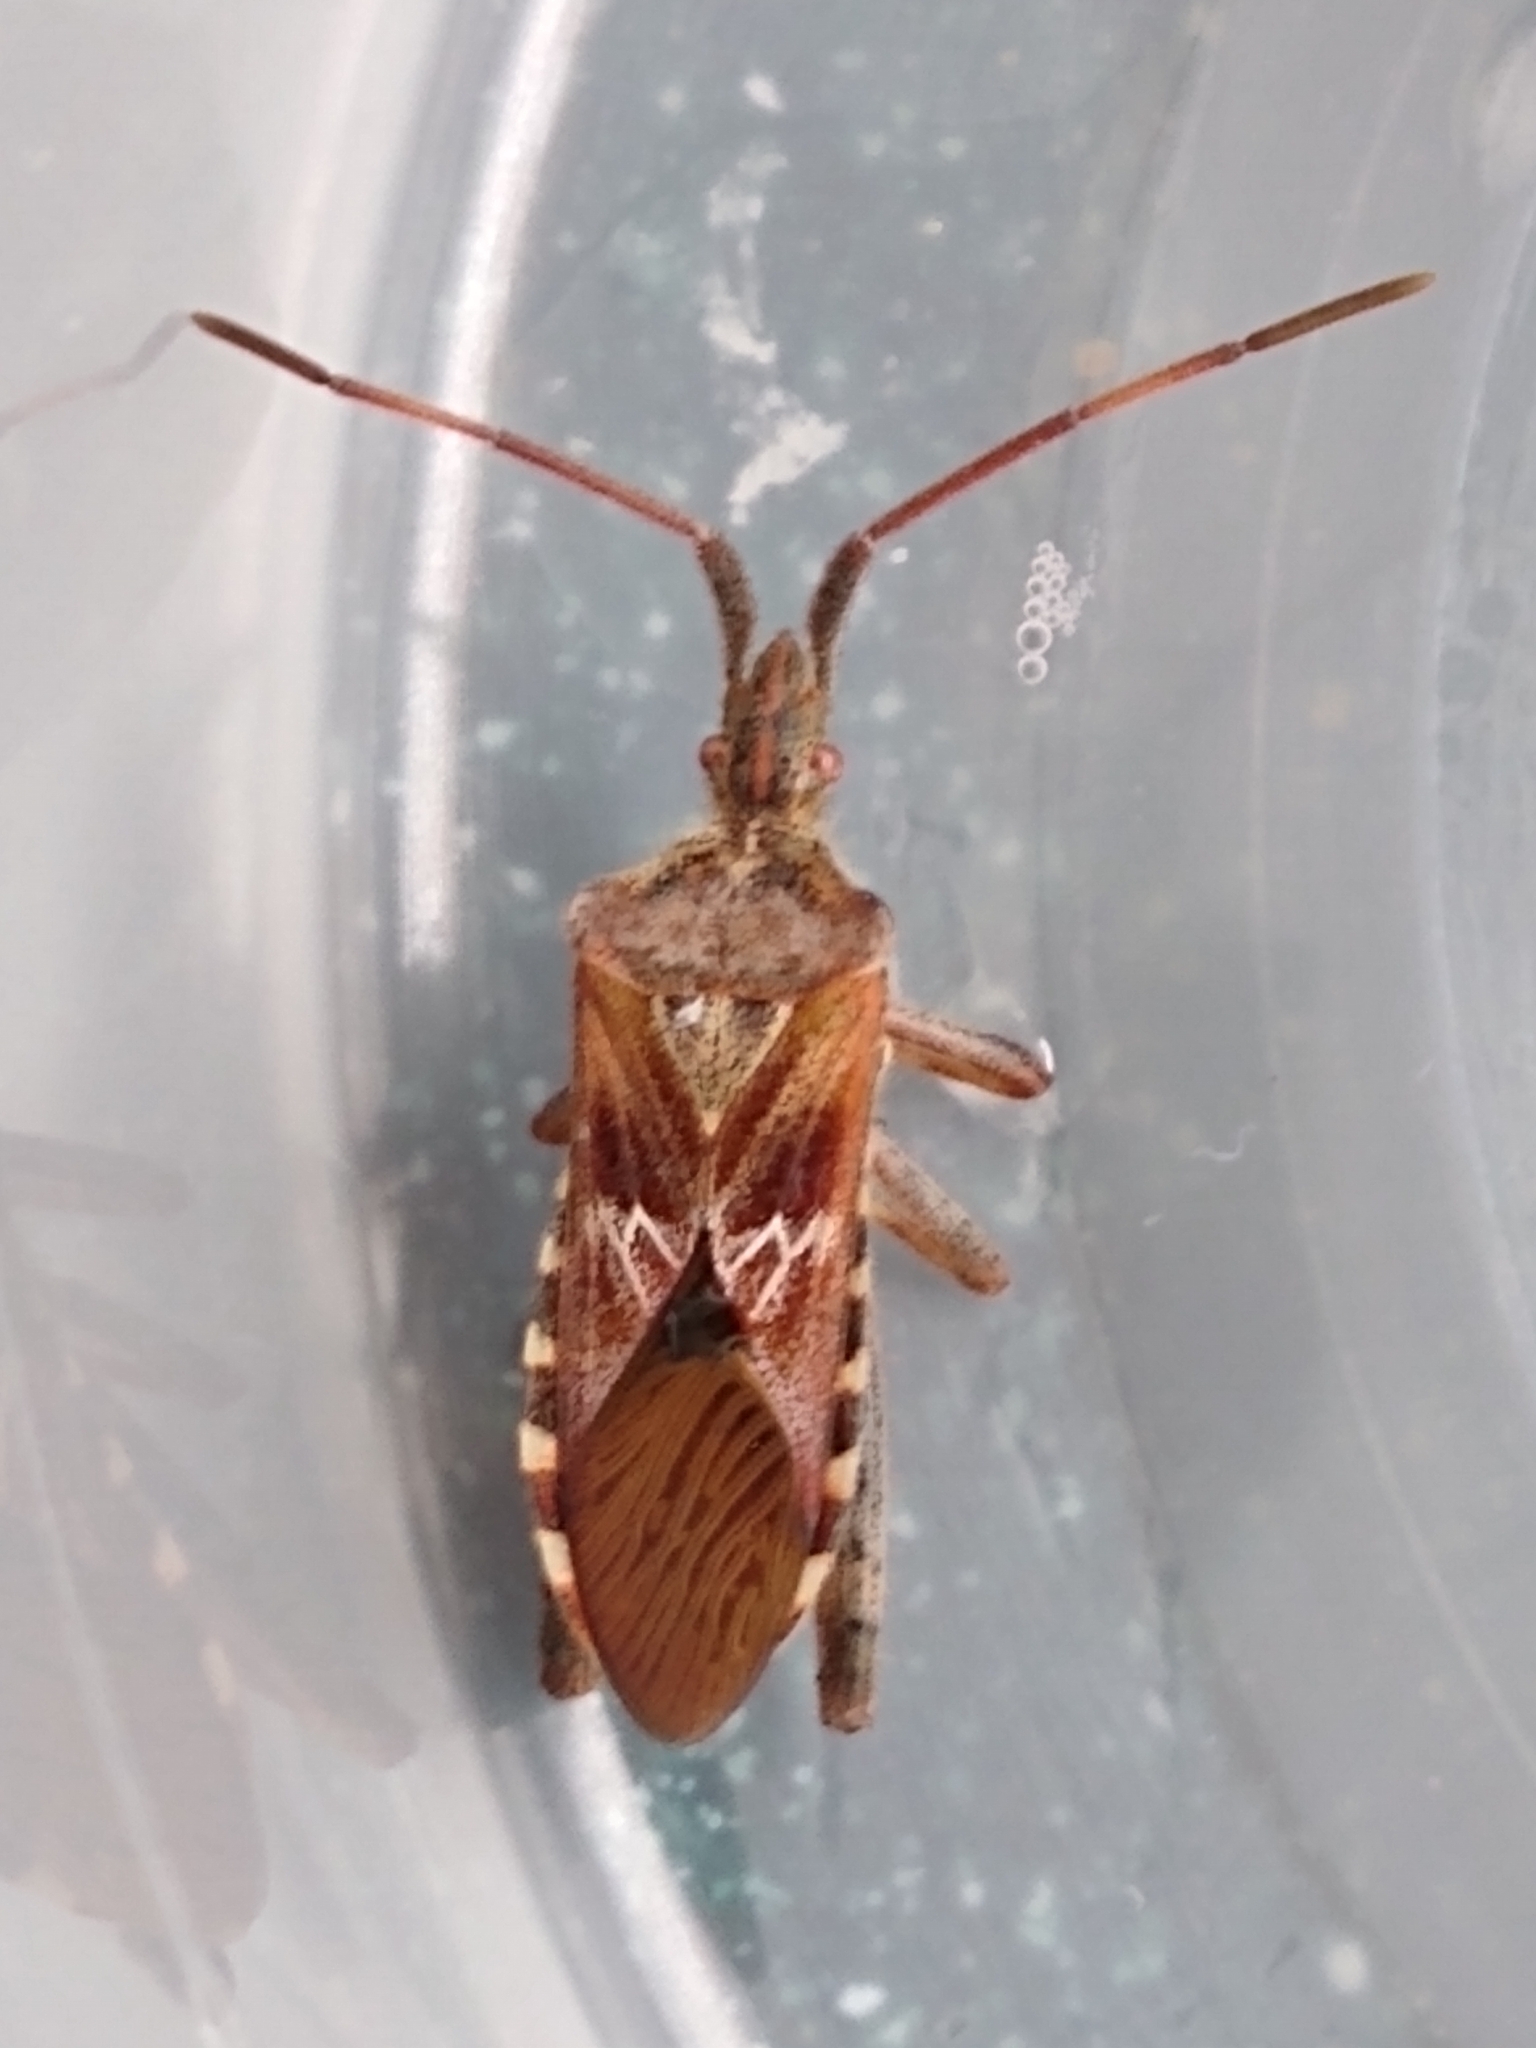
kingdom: Animalia
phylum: Arthropoda
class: Insecta
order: Hemiptera
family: Coreidae
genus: Leptoglossus
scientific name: Leptoglossus occidentalis
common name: Western conifer-seed bug
